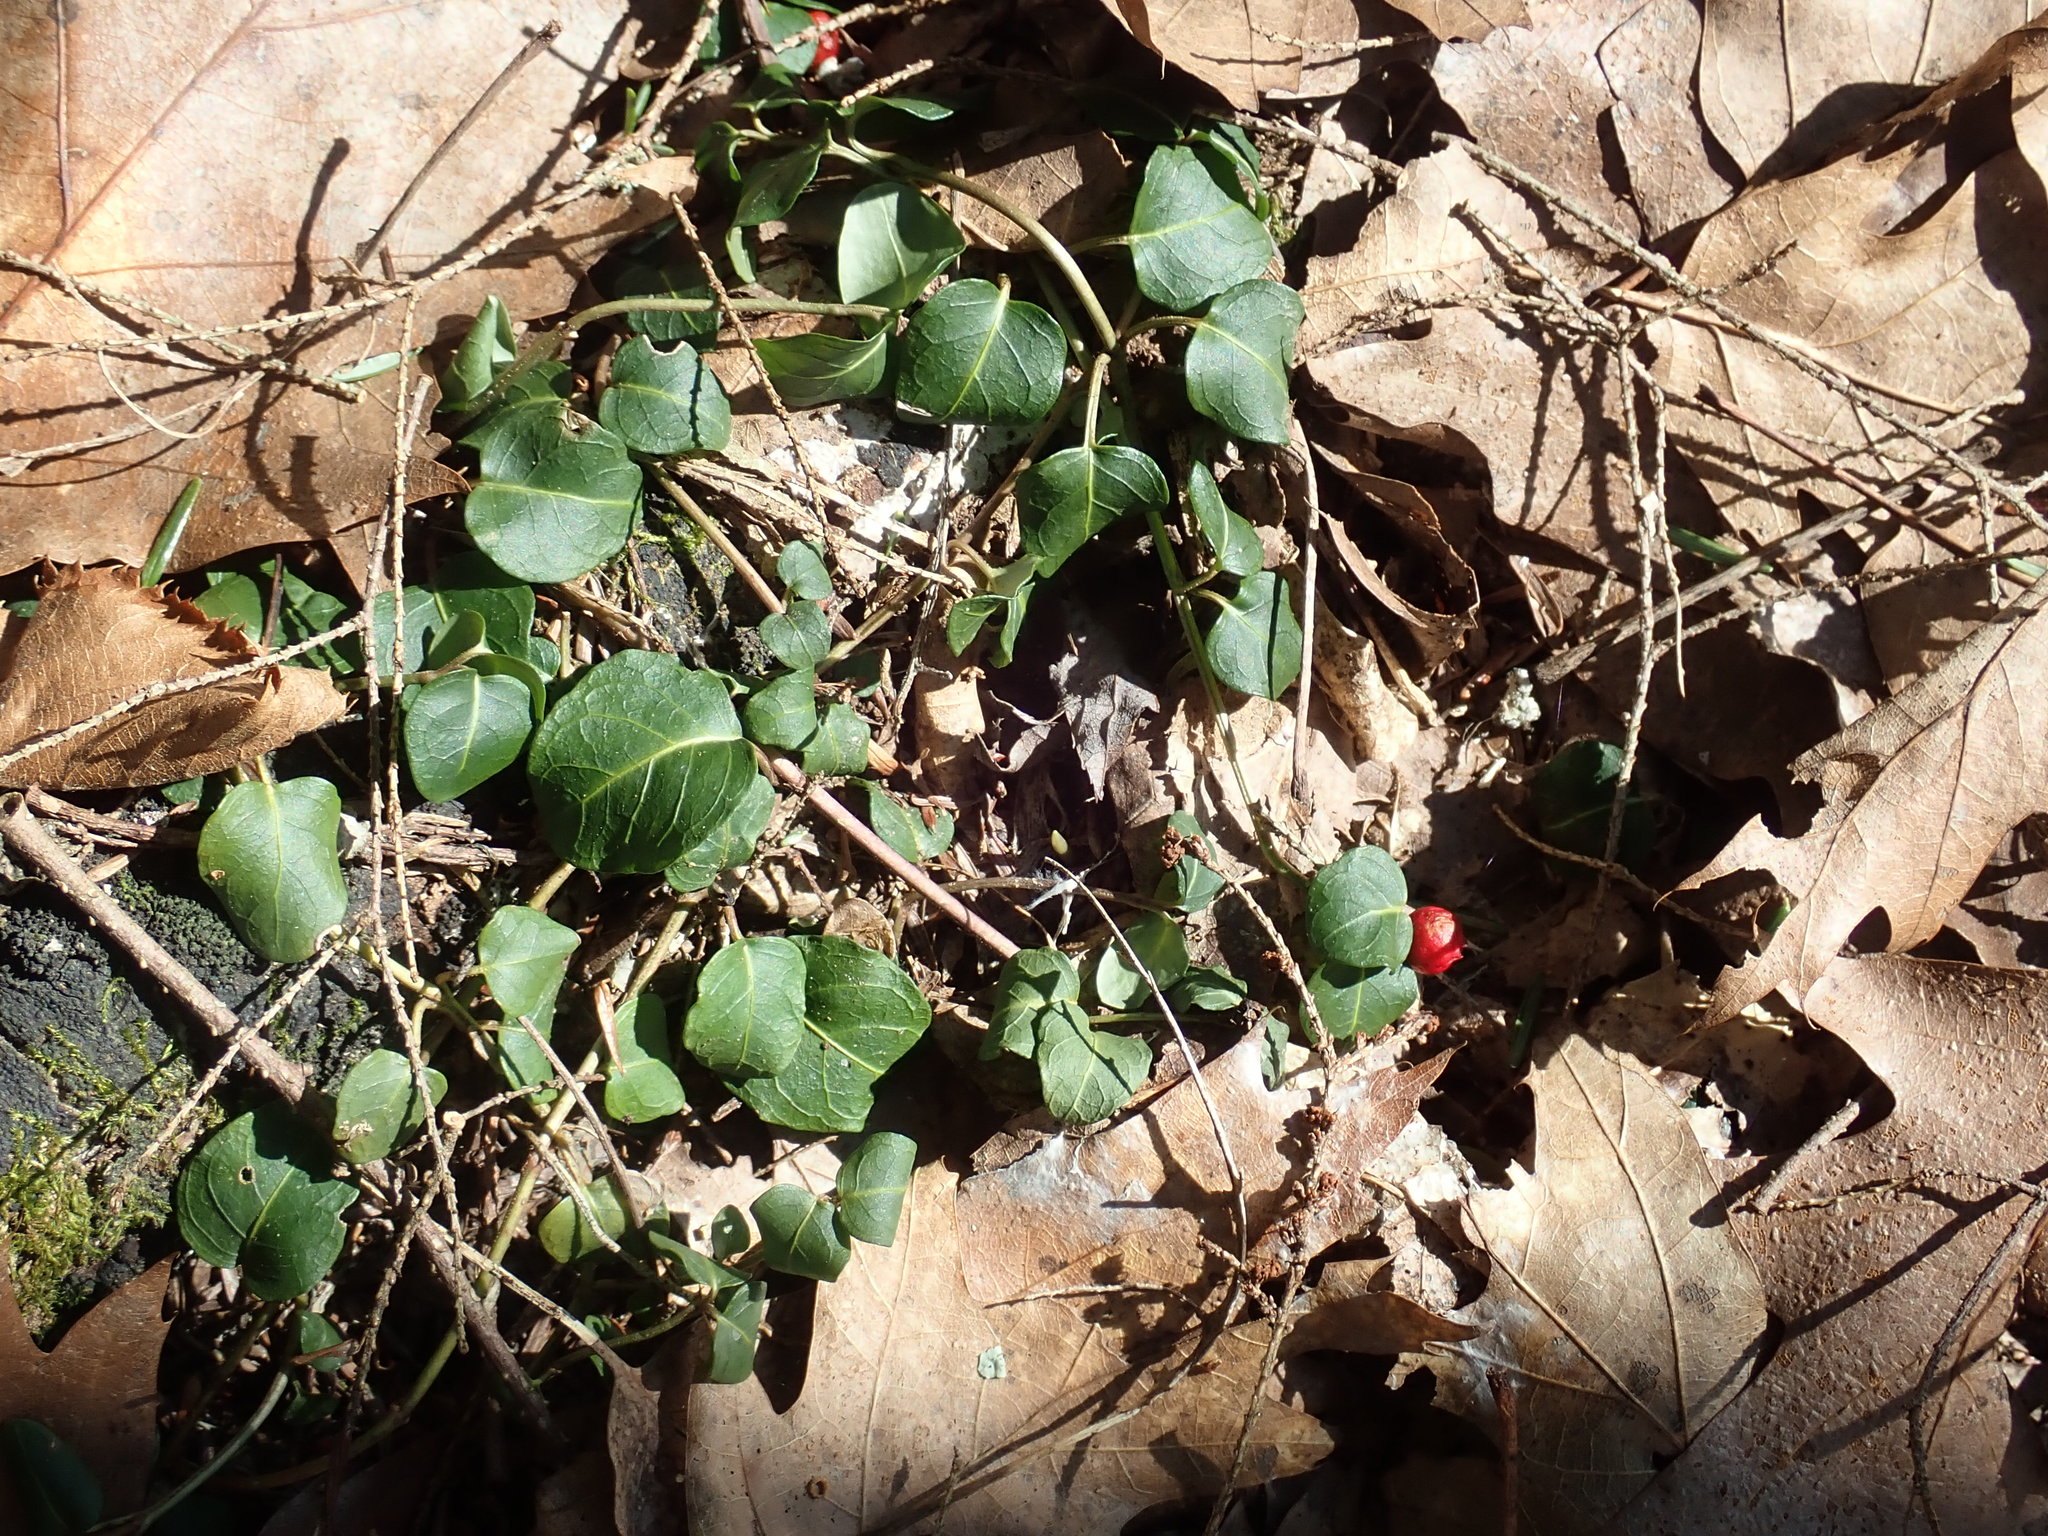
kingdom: Plantae
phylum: Tracheophyta
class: Magnoliopsida
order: Gentianales
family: Rubiaceae
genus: Mitchella
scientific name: Mitchella repens
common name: Partridge-berry
